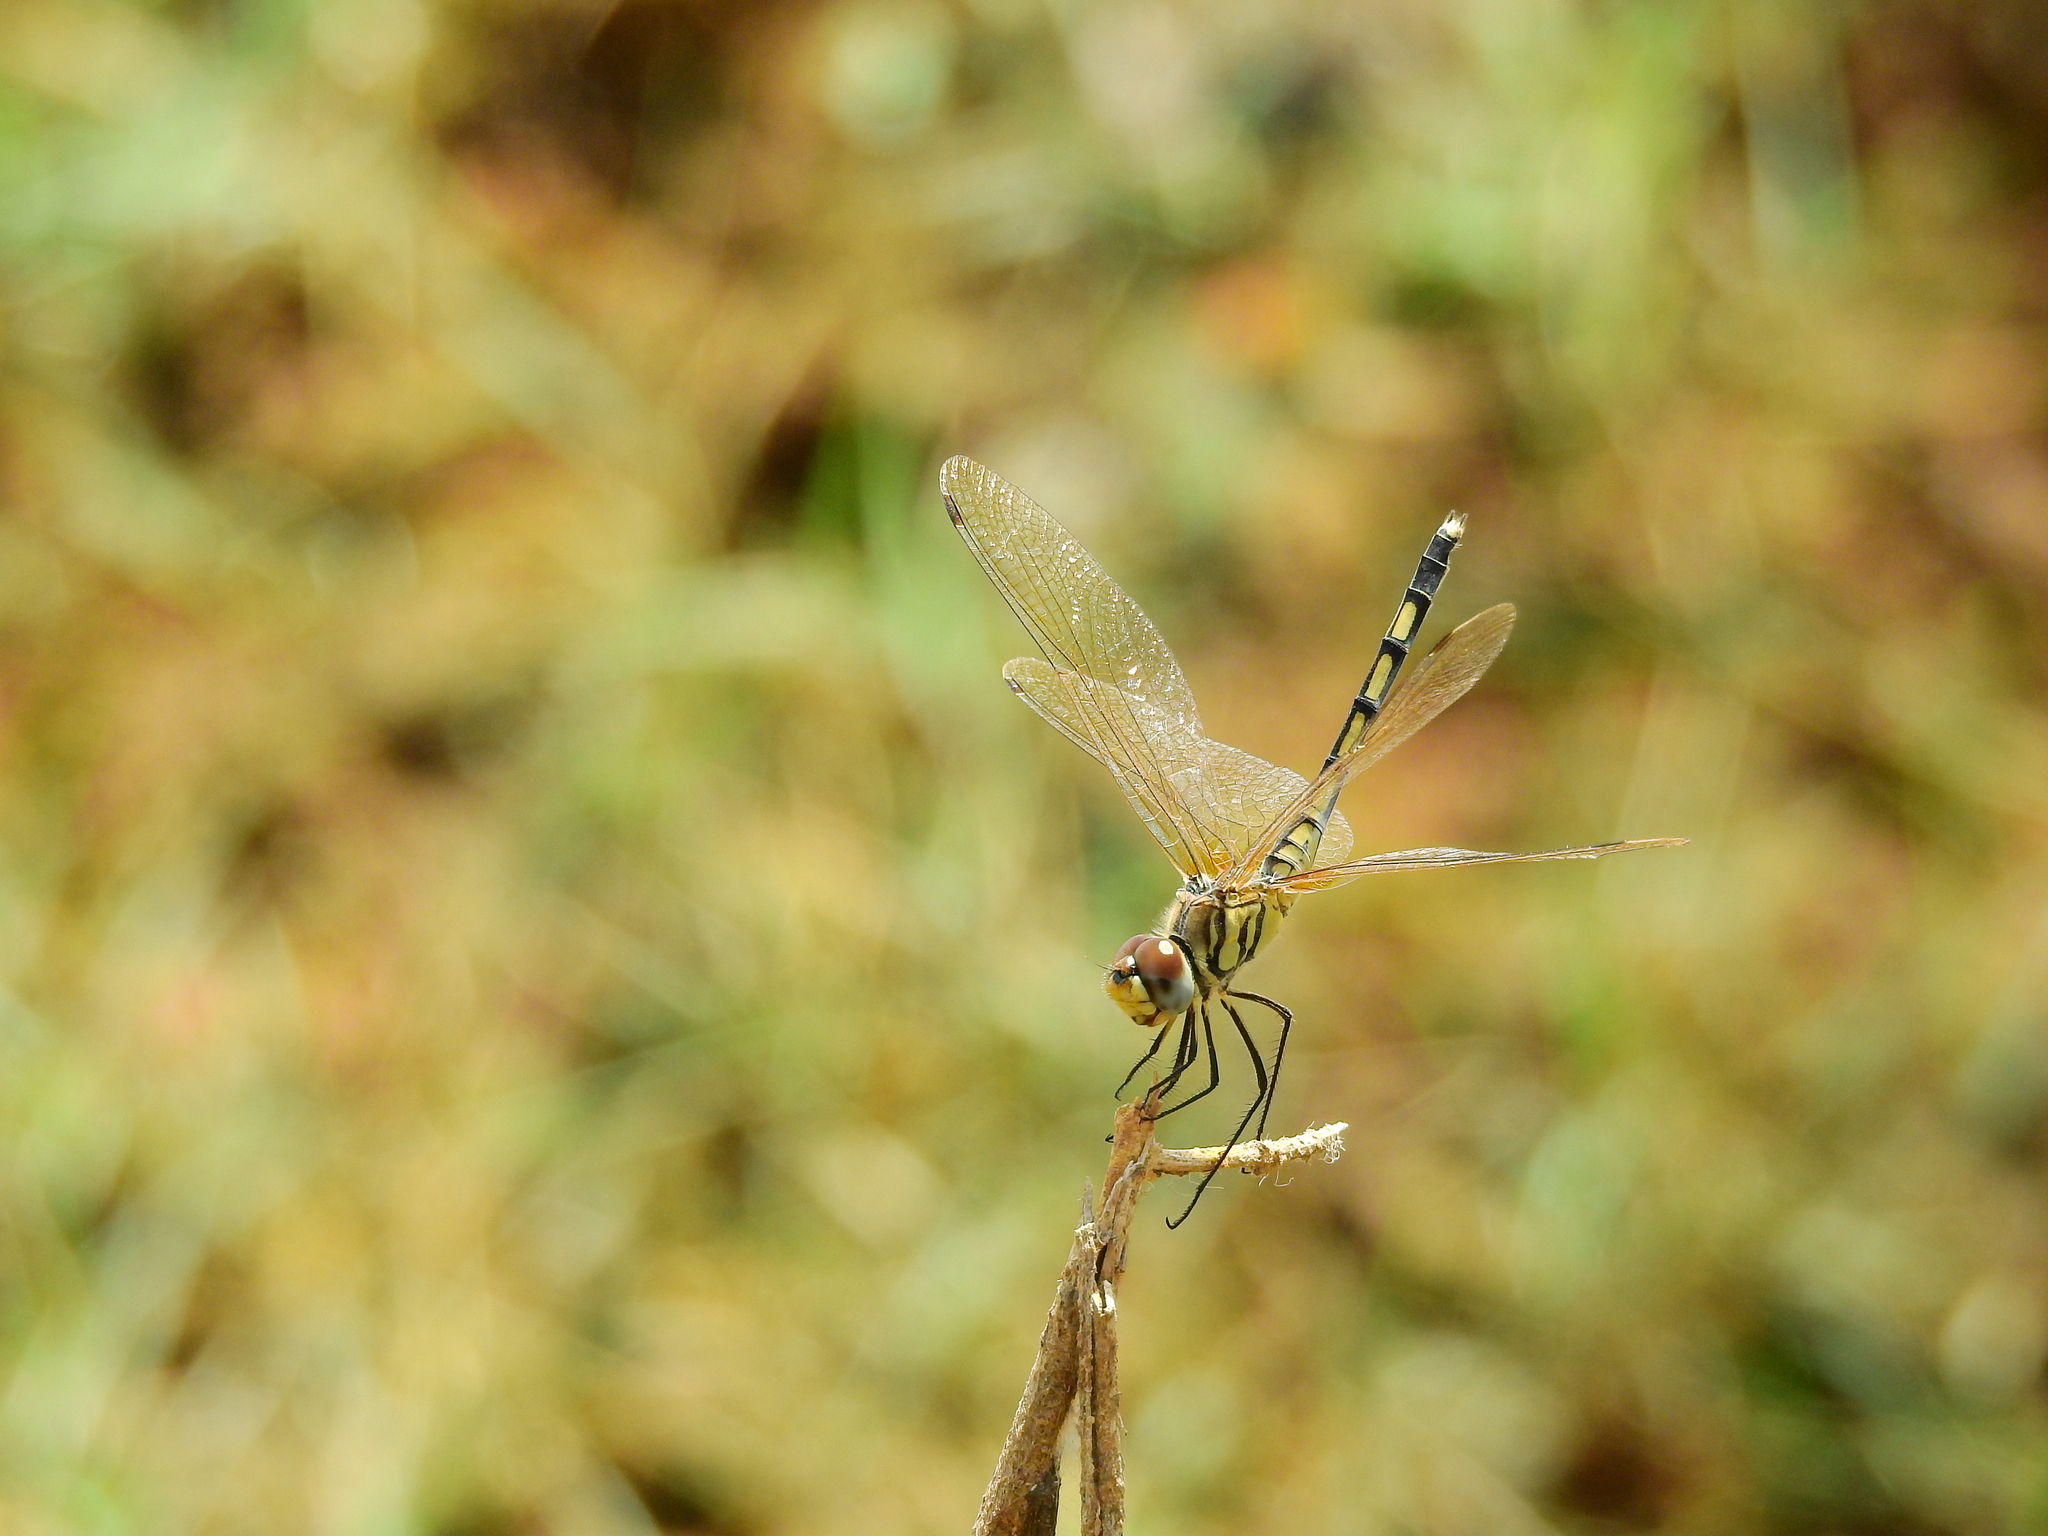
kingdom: Animalia
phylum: Arthropoda
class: Insecta
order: Odonata
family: Libellulidae
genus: Trithemis
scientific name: Trithemis pallidinervis
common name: Dancing dropwing
